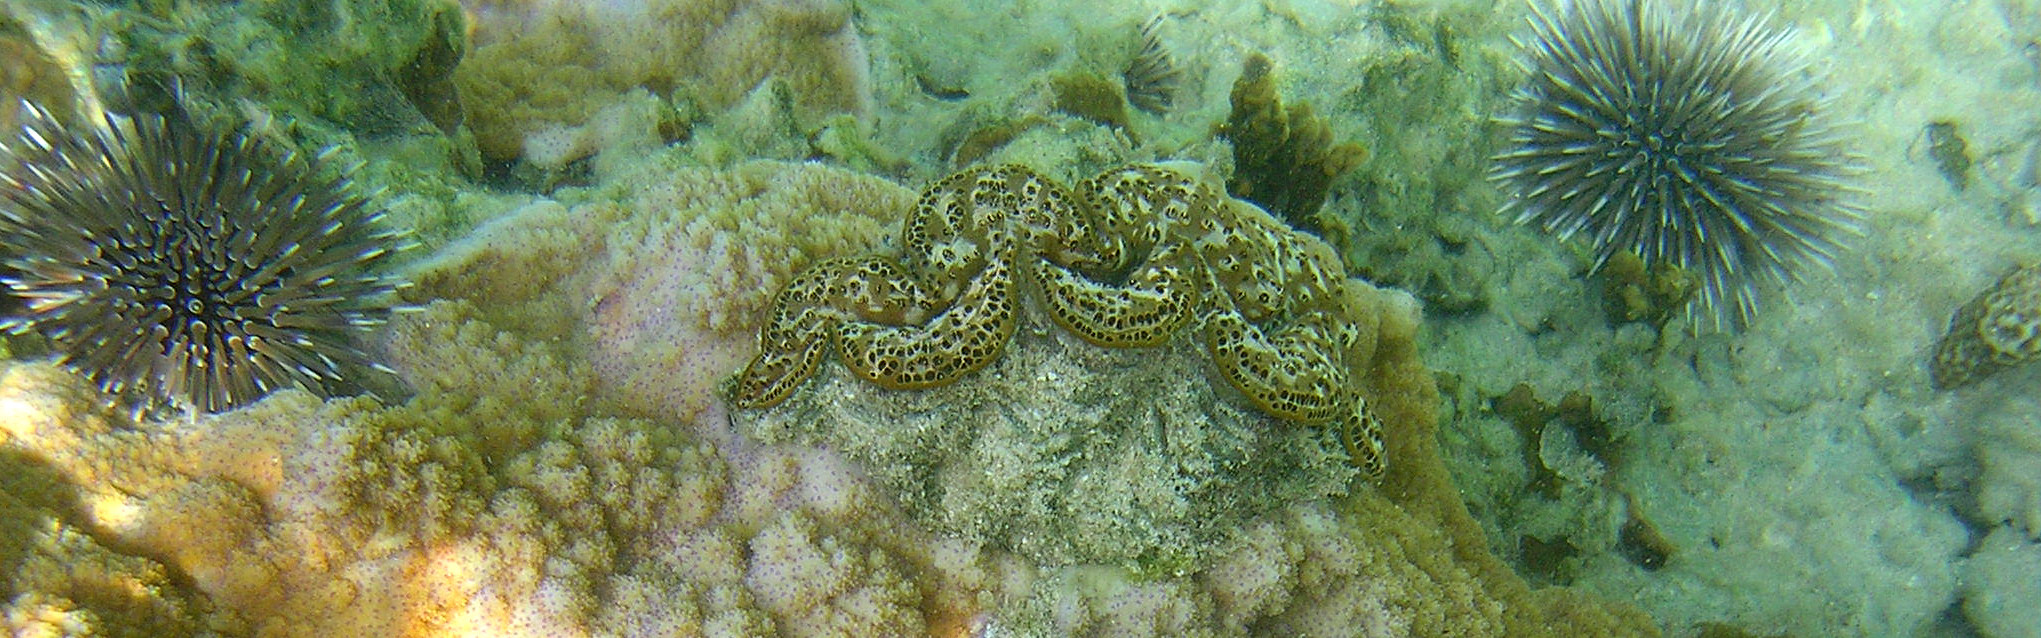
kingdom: Animalia
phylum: Mollusca
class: Bivalvia
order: Cardiida
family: Cardiidae
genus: Tridacna
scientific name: Tridacna maxima
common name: Small giant clam
